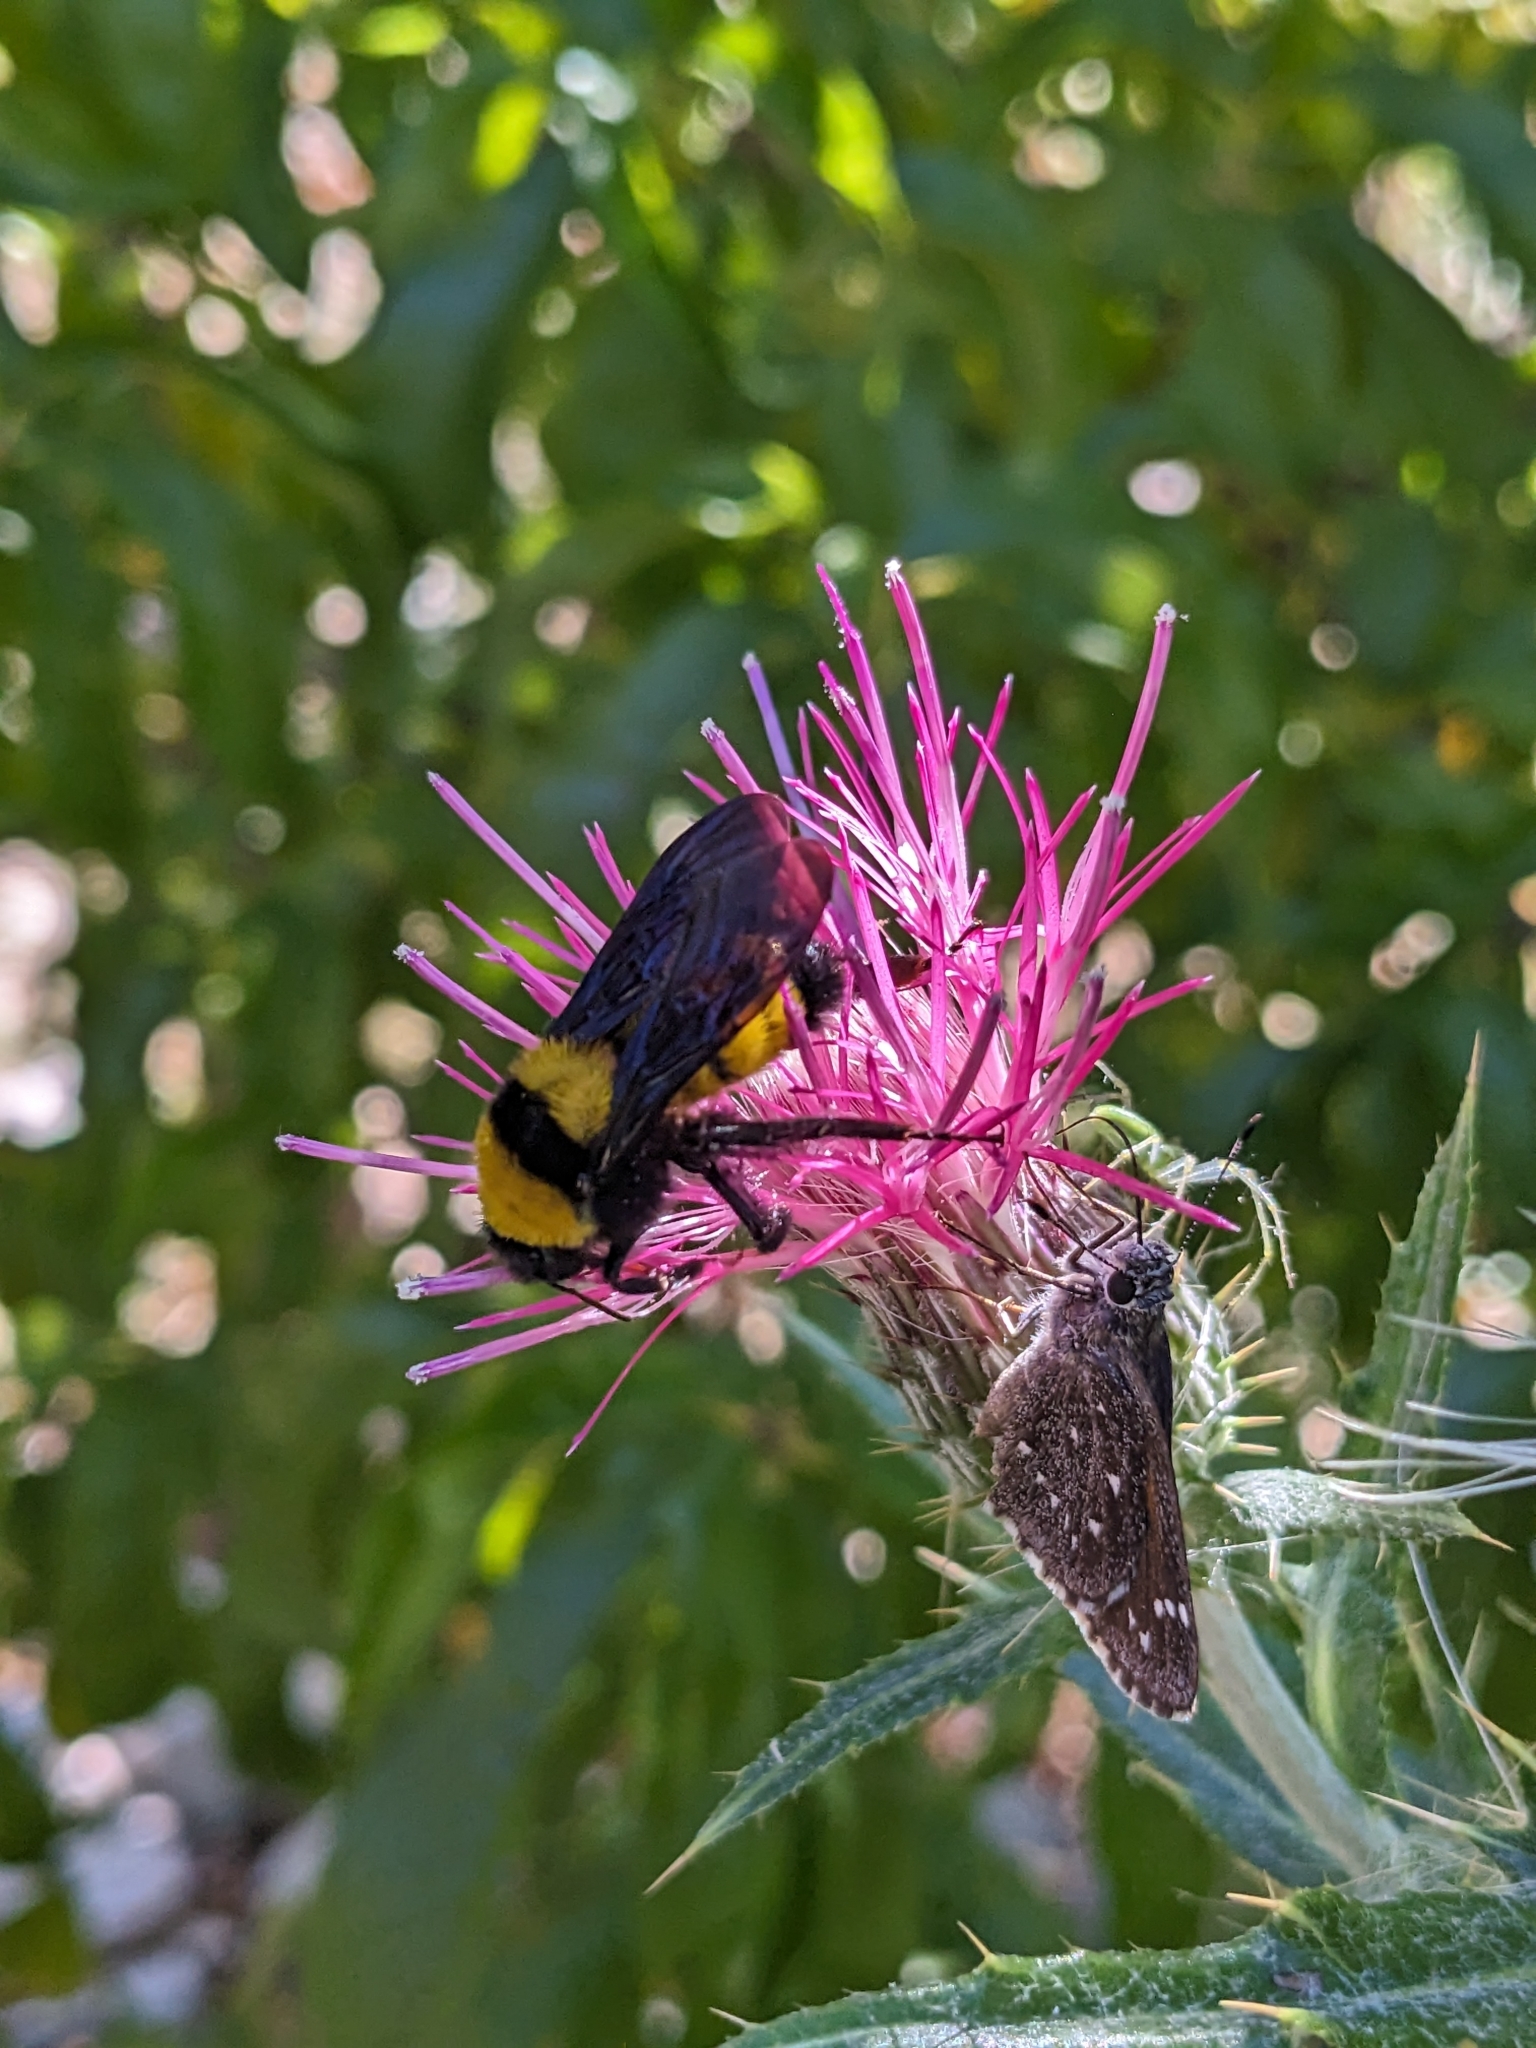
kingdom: Animalia
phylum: Arthropoda
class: Insecta
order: Hymenoptera
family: Apidae
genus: Bombus
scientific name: Bombus sonorus
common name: Sonoran bumble bee
